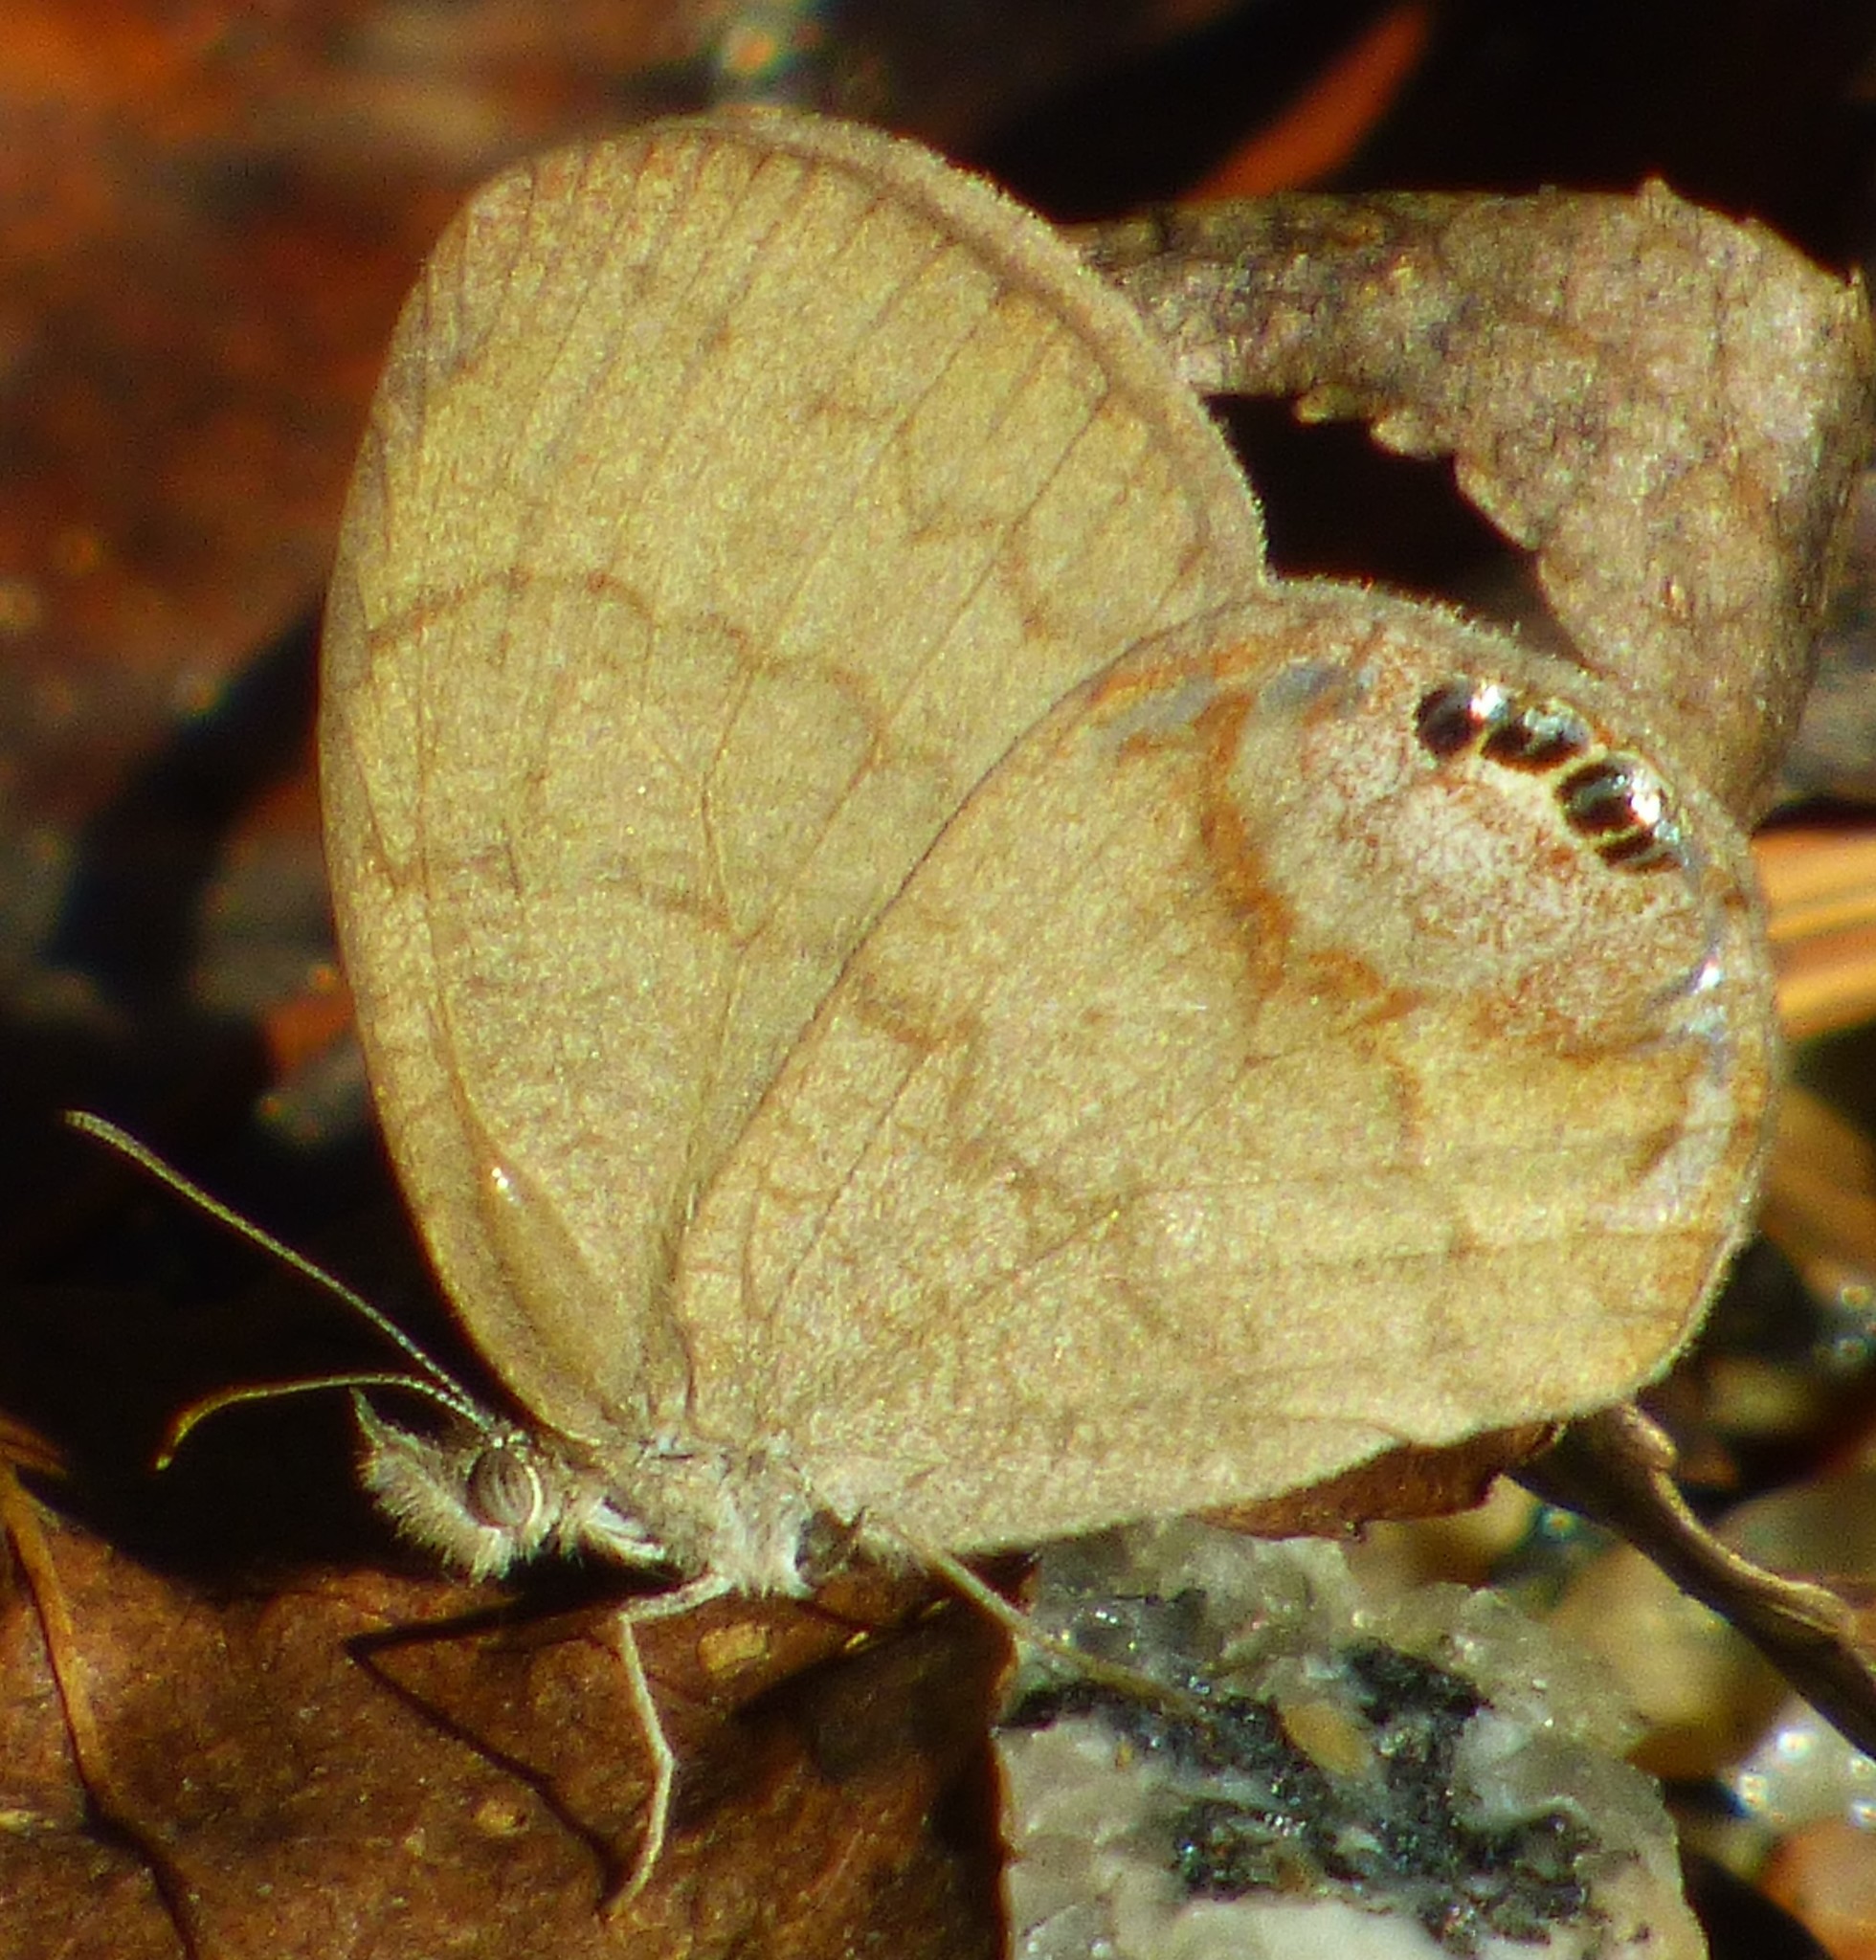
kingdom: Animalia
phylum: Arthropoda
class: Insecta
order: Lepidoptera
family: Nymphalidae
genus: Euptychia
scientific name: Euptychia cornelius
